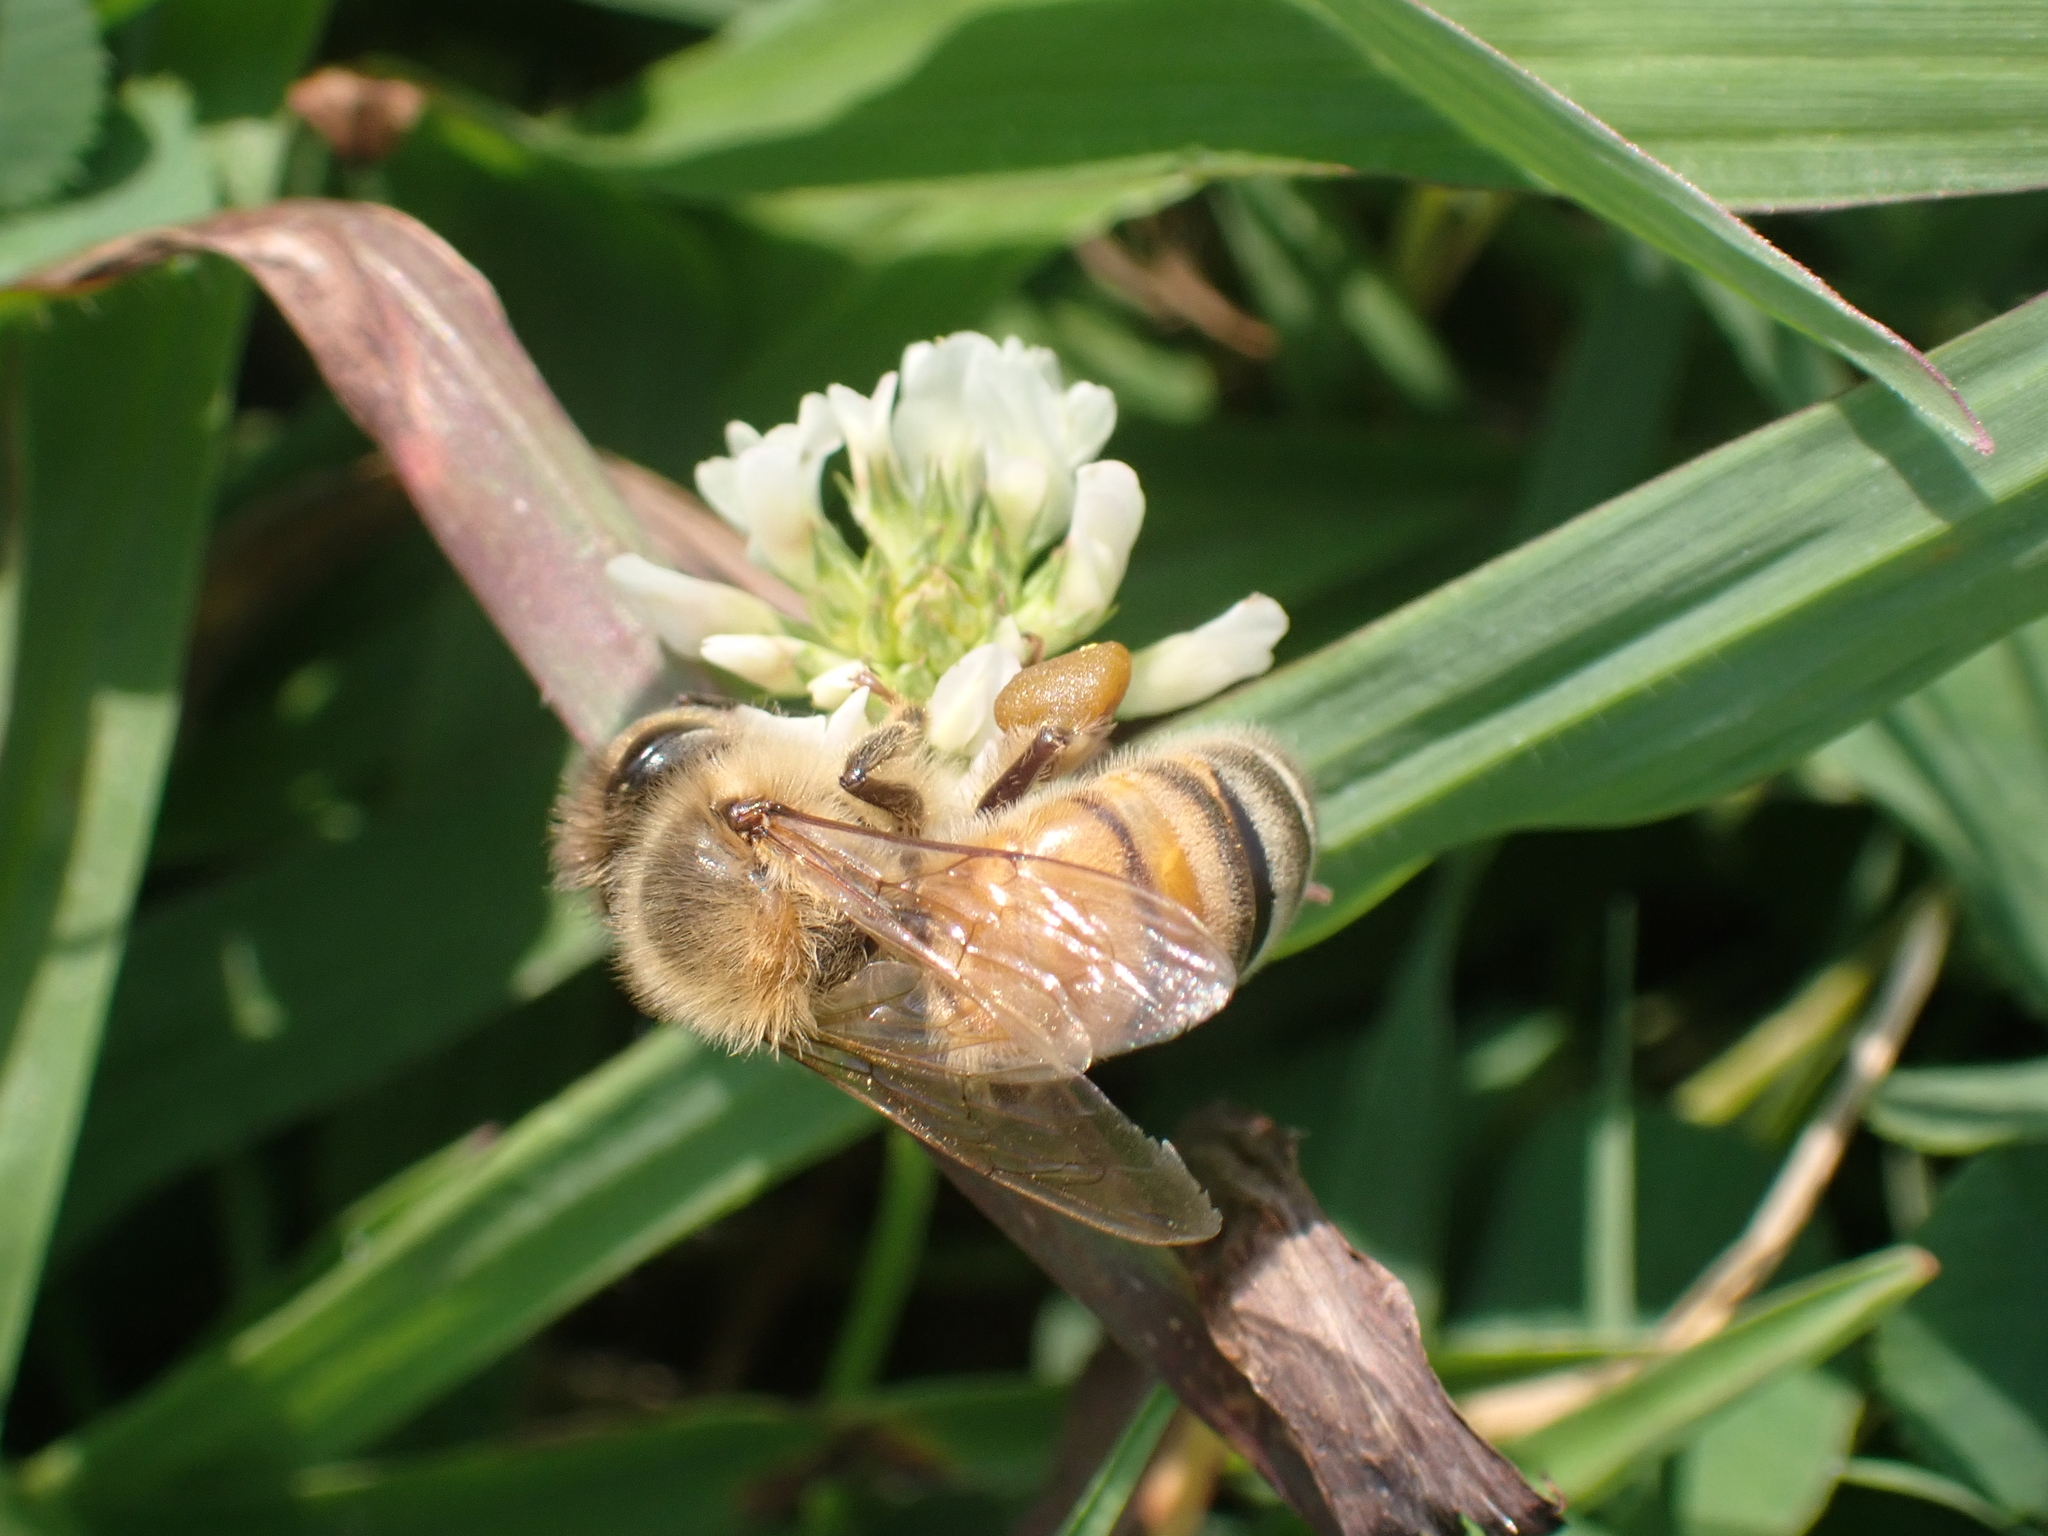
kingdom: Animalia
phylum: Arthropoda
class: Insecta
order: Hymenoptera
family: Apidae
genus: Apis
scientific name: Apis mellifera
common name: Honey bee
